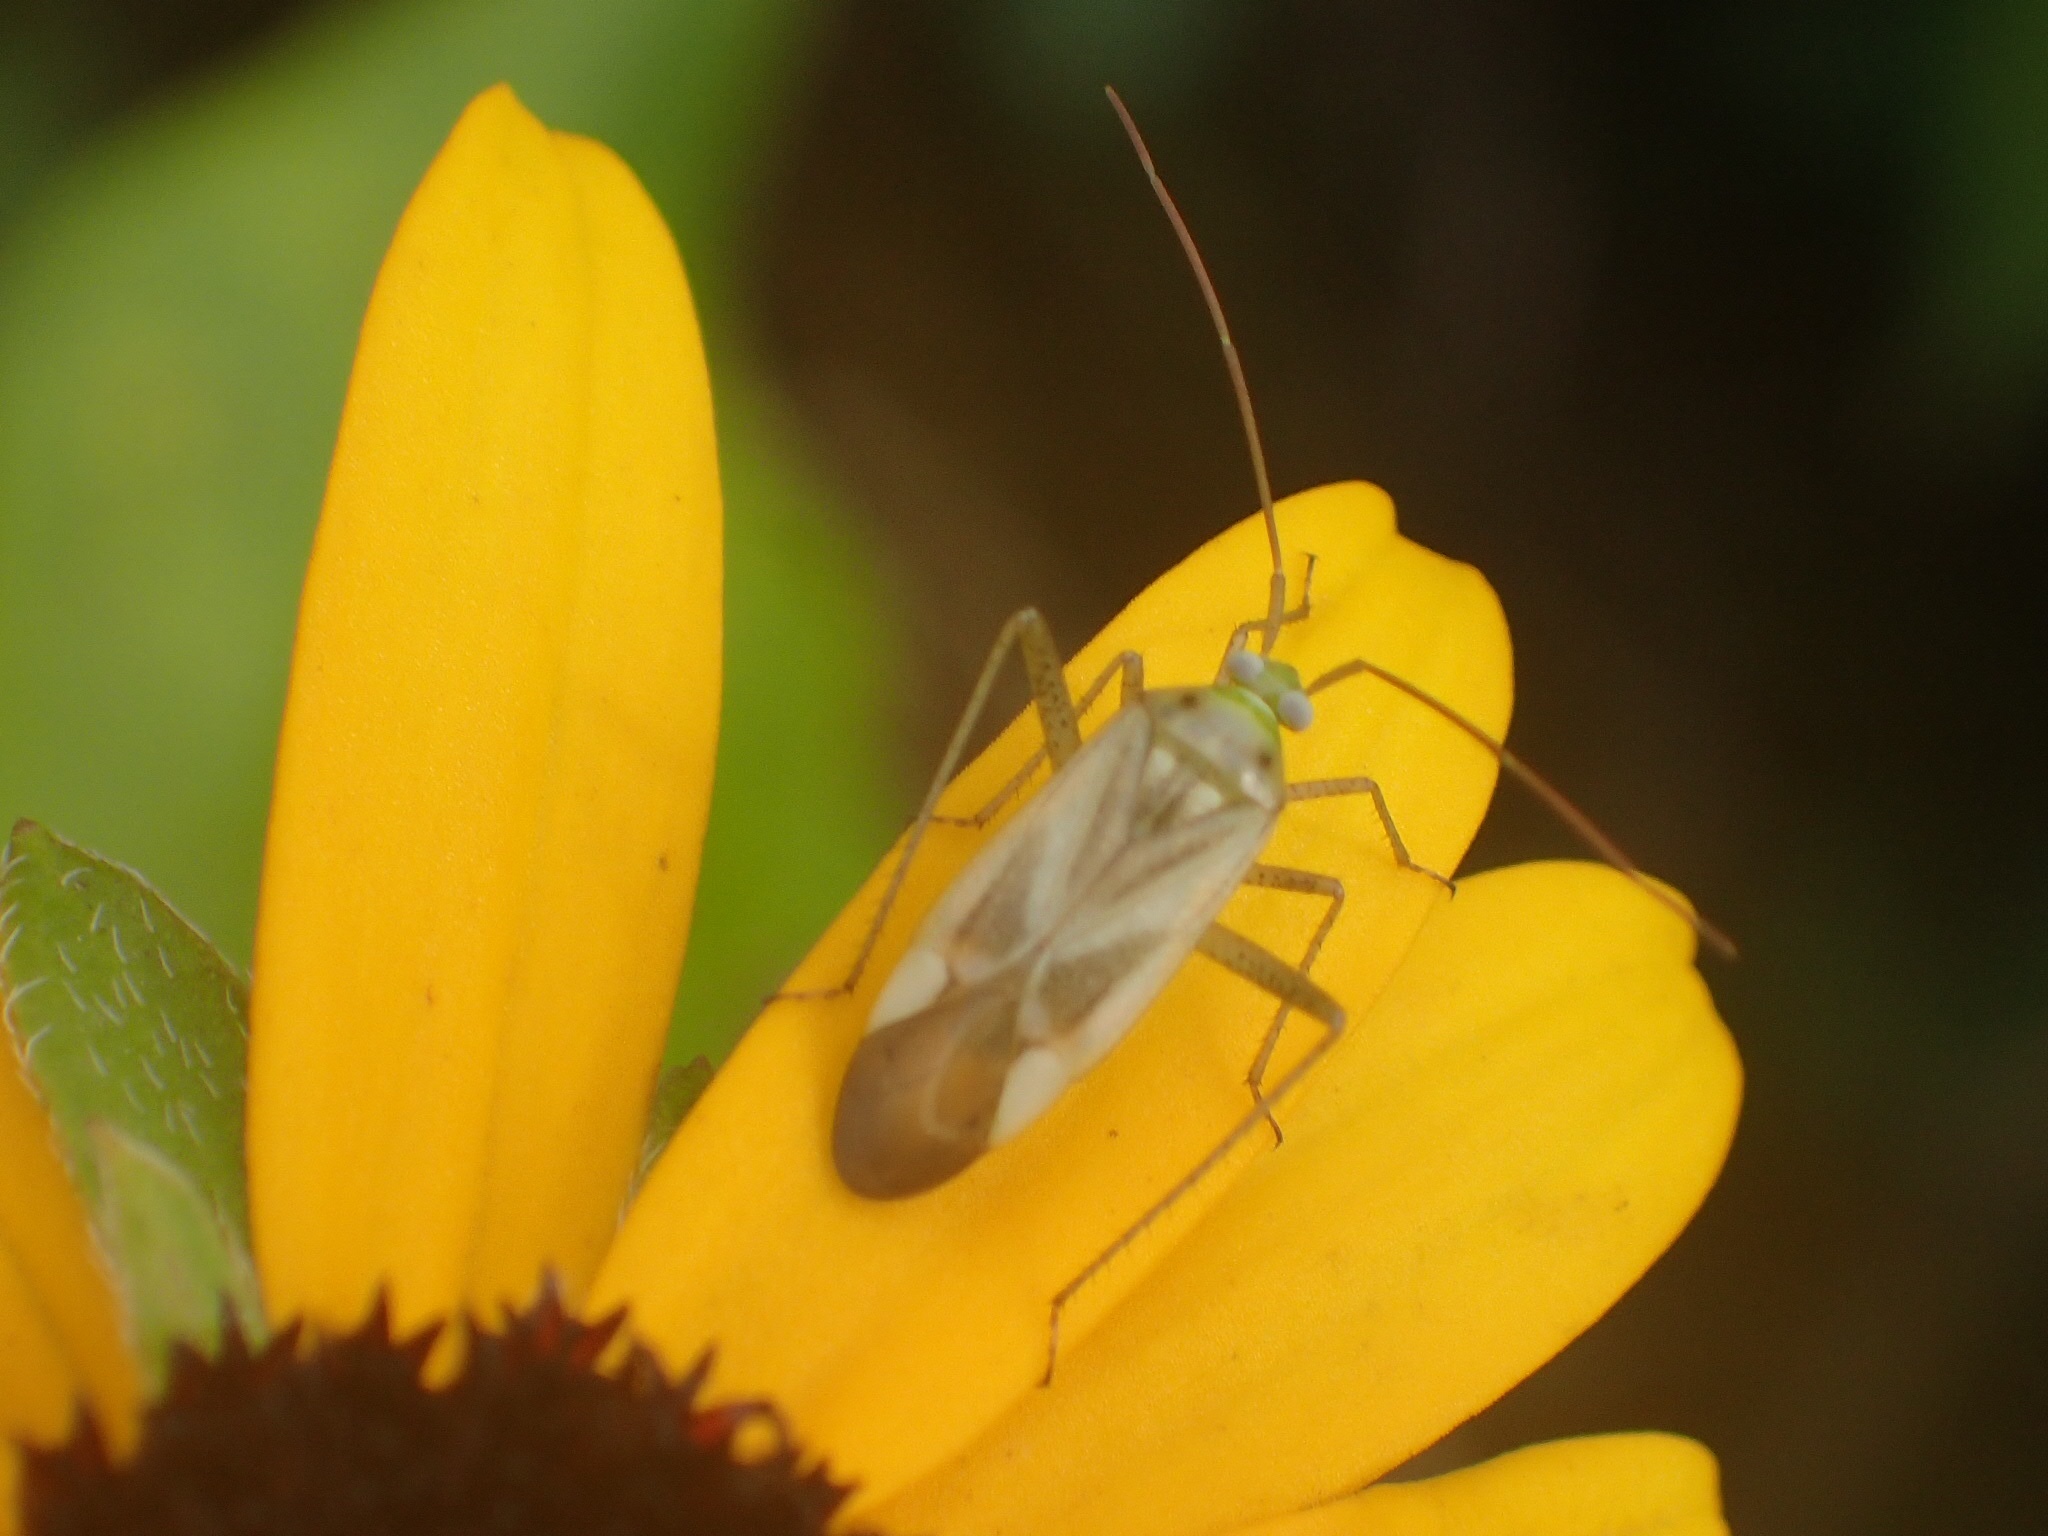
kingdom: Animalia
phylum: Arthropoda
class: Insecta
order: Hemiptera
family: Miridae
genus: Adelphocoris
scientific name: Adelphocoris lineolatus
